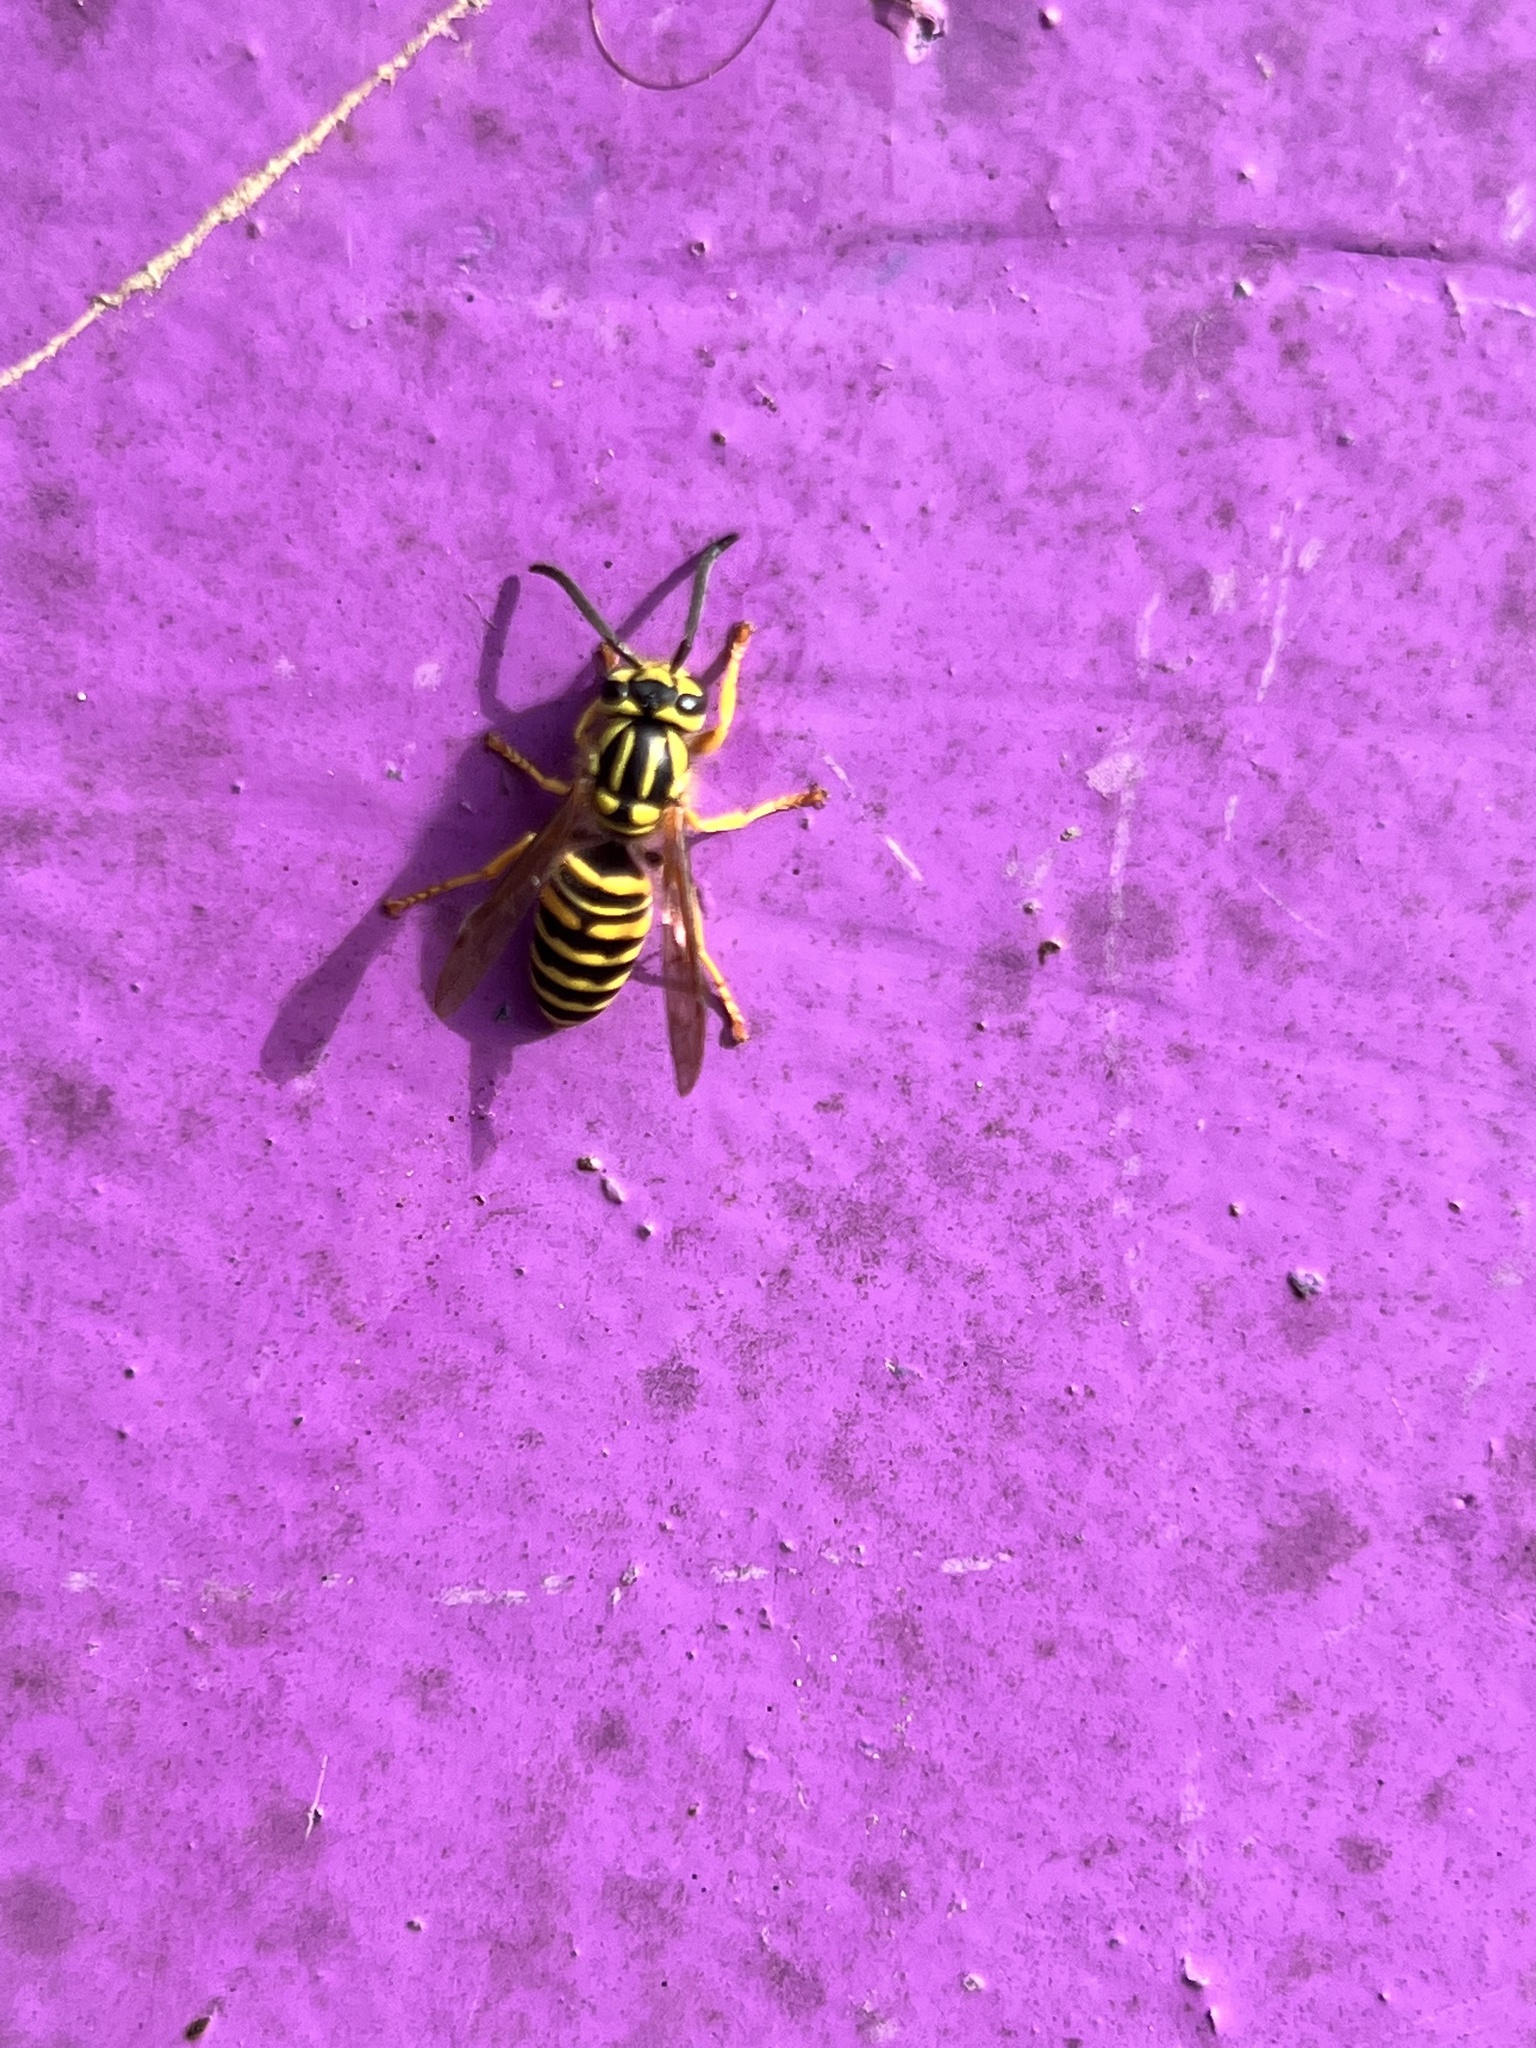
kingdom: Animalia
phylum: Arthropoda
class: Insecta
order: Hymenoptera
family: Vespidae
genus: Vespula
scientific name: Vespula squamosa
